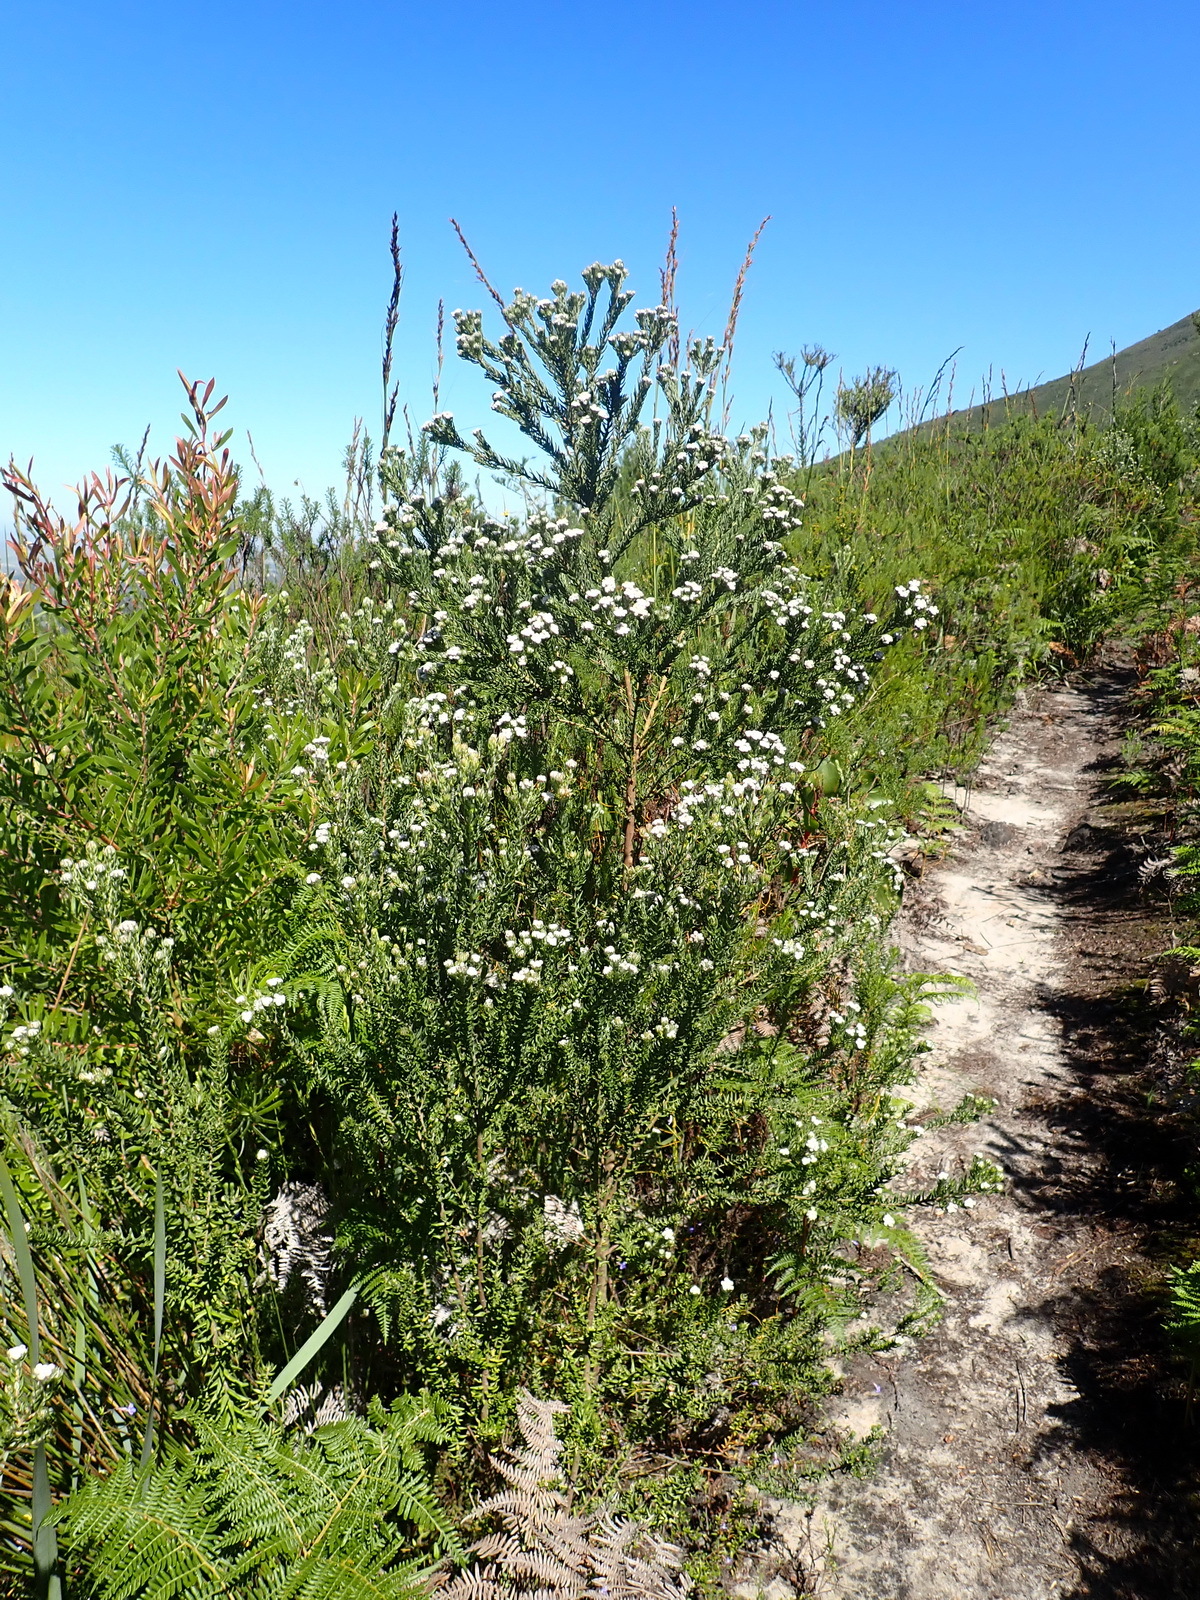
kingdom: Plantae
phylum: Tracheophyta
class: Magnoliopsida
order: Rosales
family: Rhamnaceae
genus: Phylica
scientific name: Phylica purpurea
